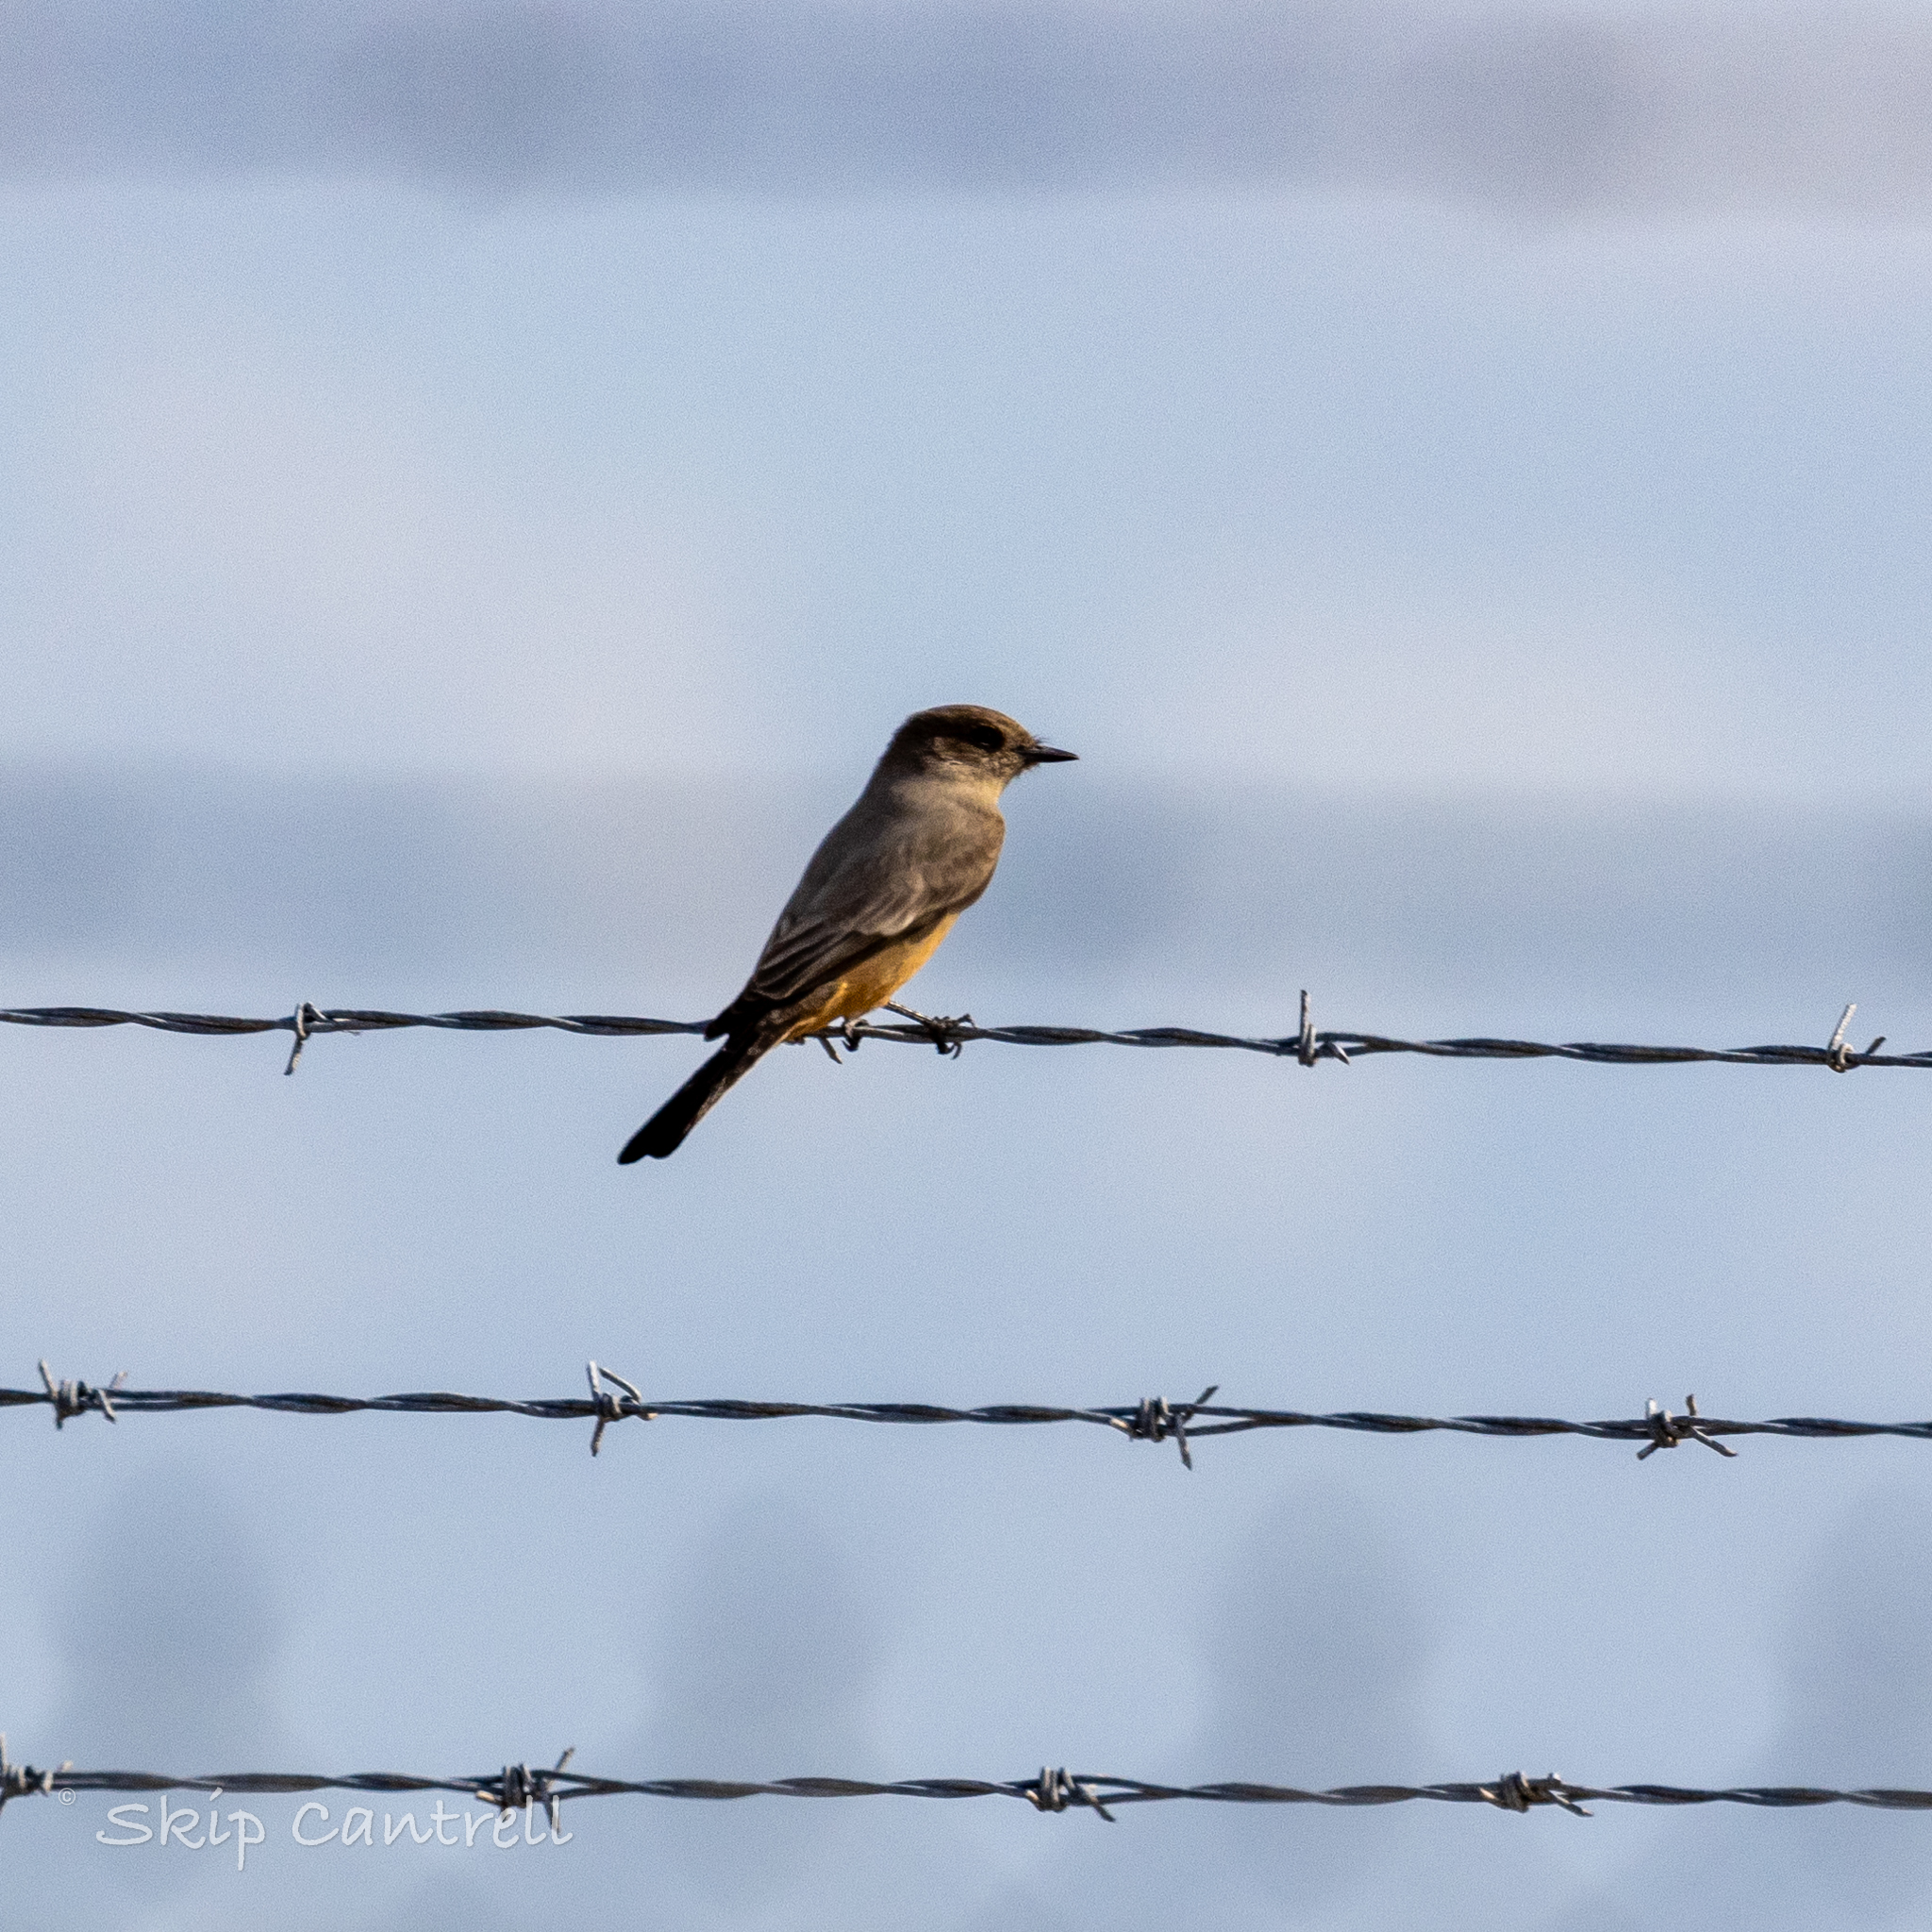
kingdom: Animalia
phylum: Chordata
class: Aves
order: Passeriformes
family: Tyrannidae
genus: Sayornis
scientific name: Sayornis saya
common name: Say's phoebe
